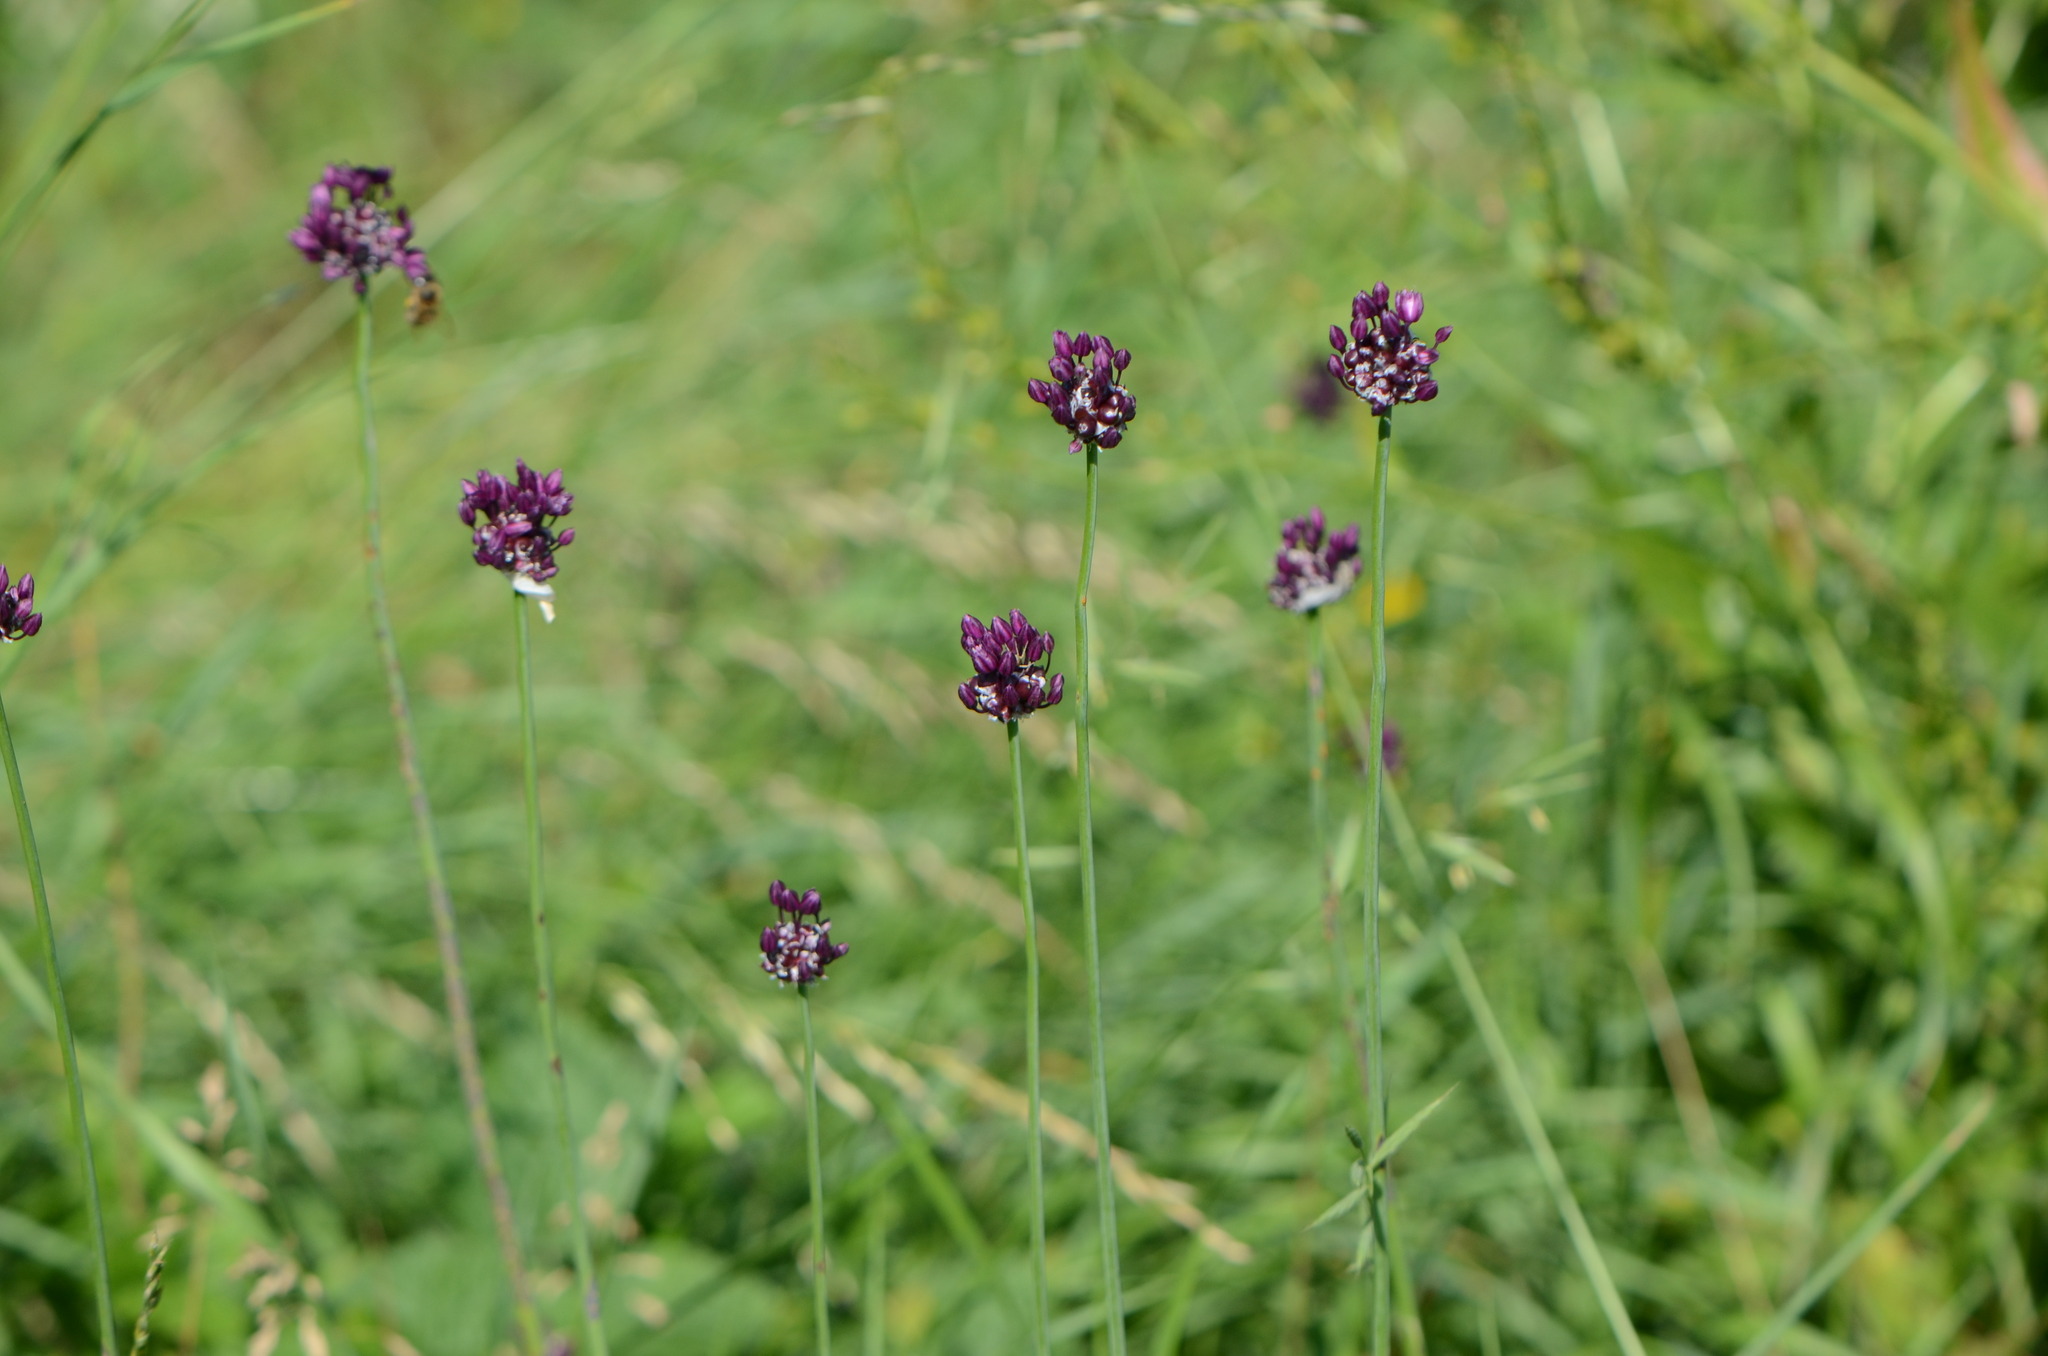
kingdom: Plantae
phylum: Tracheophyta
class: Liliopsida
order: Asparagales
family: Amaryllidaceae
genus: Allium
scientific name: Allium scorodoprasum
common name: Sand leek
